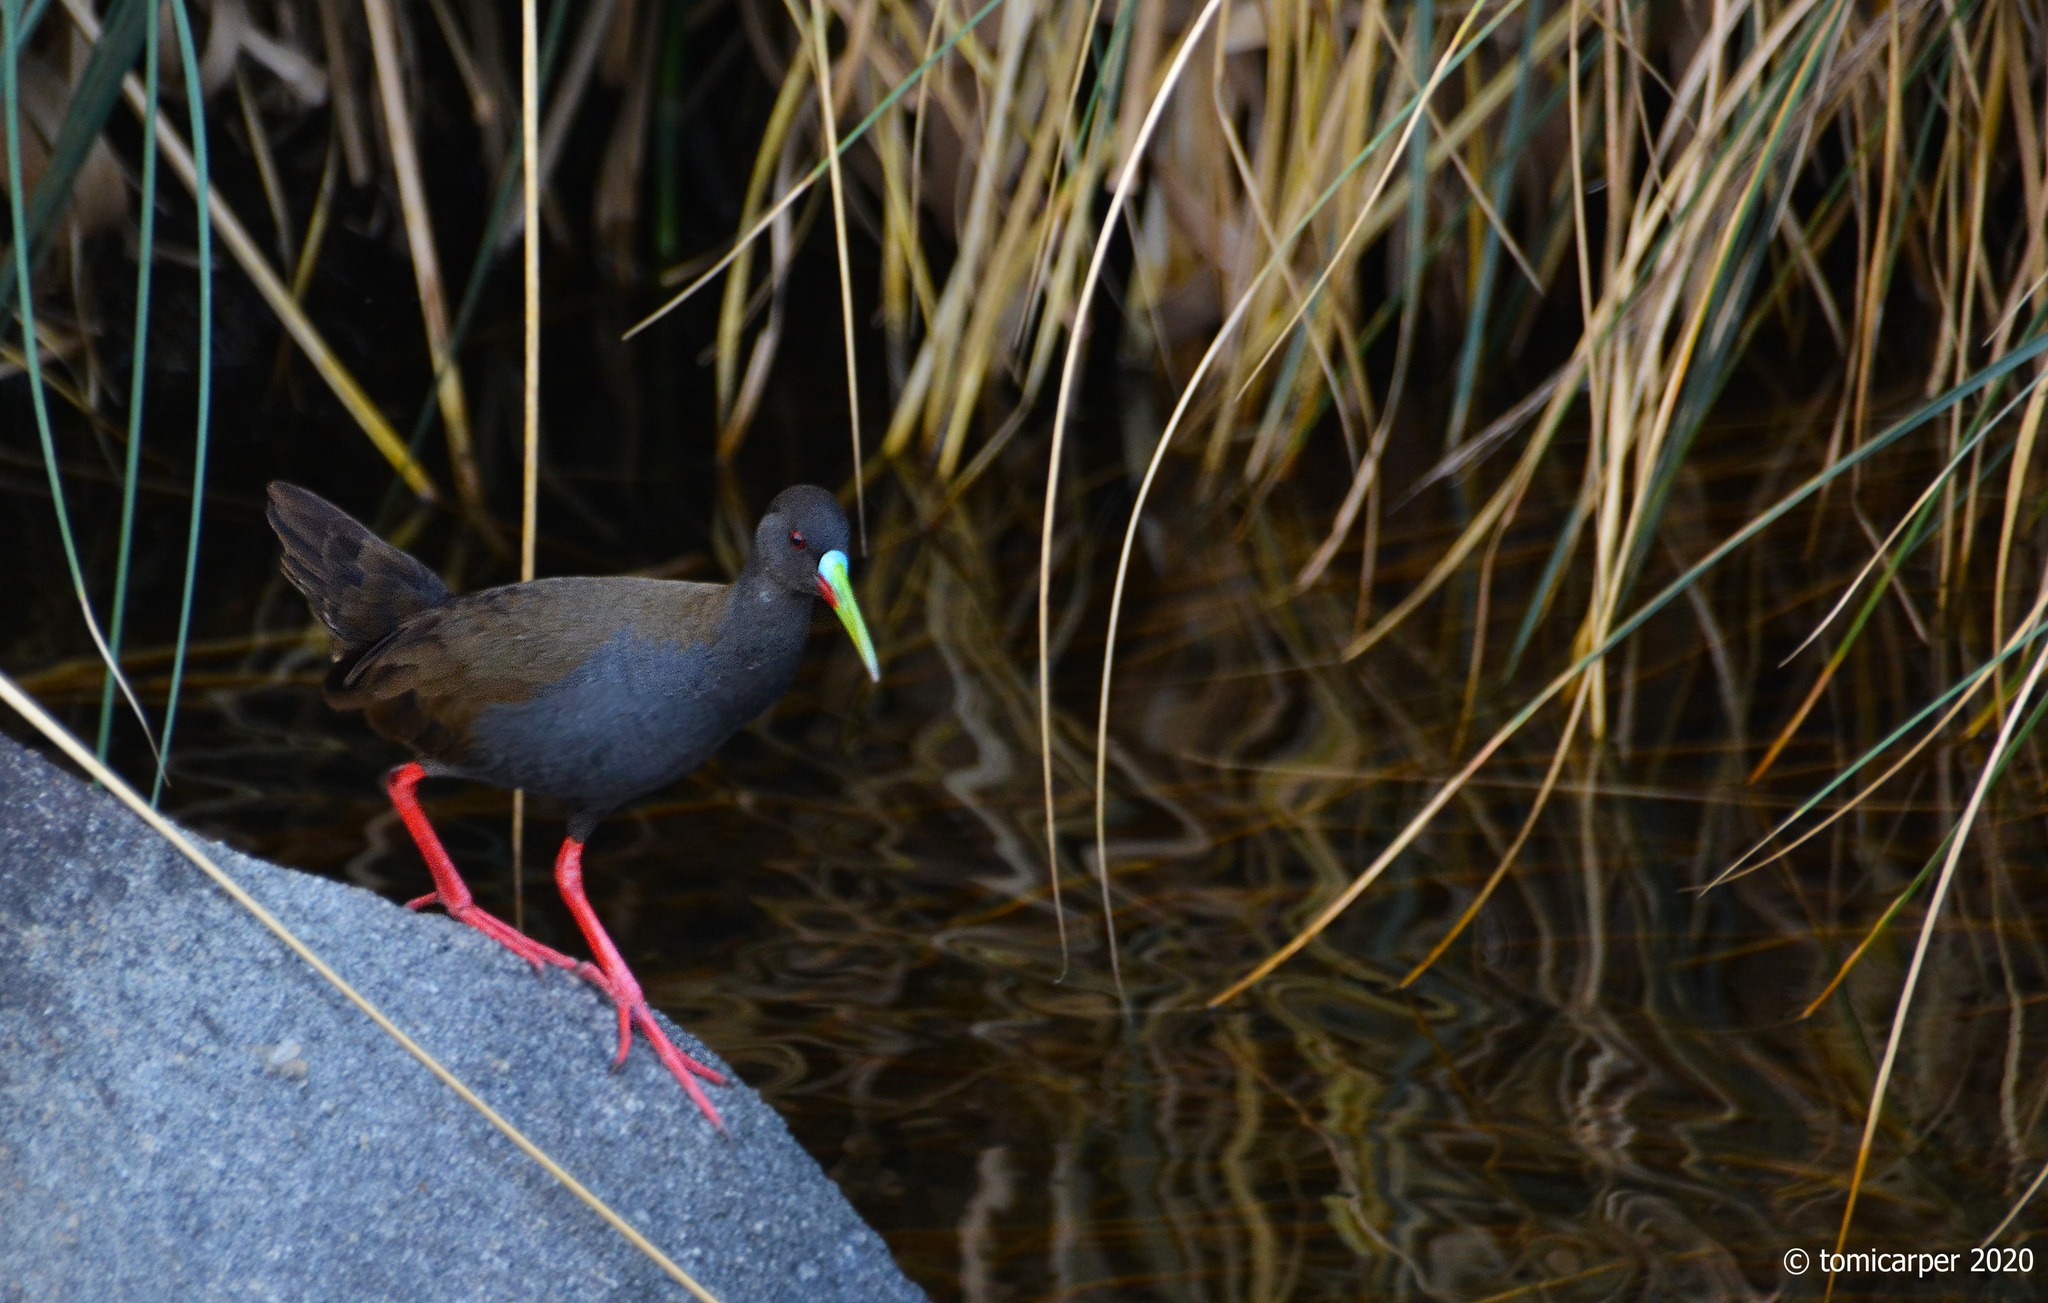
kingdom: Animalia
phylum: Chordata
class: Aves
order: Gruiformes
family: Rallidae
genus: Pardirallus
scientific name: Pardirallus sanguinolentus
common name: Plumbeous rail
